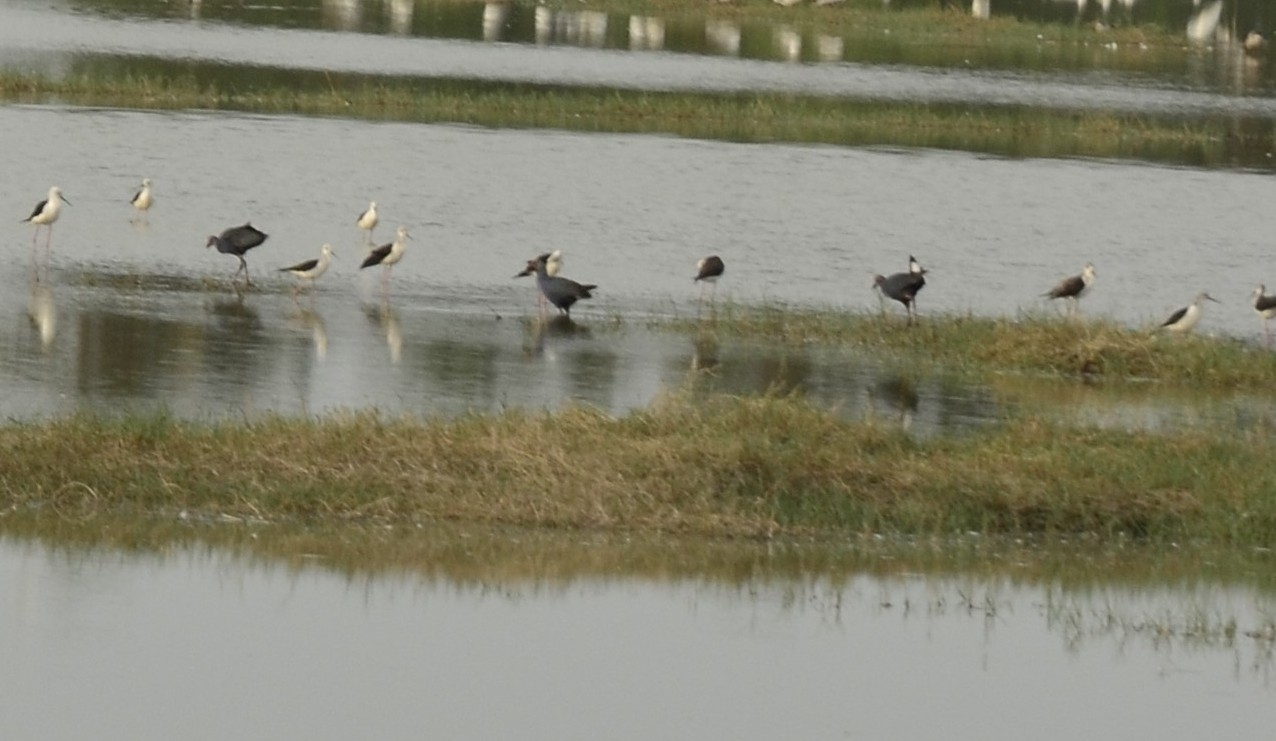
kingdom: Animalia
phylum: Chordata
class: Aves
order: Charadriiformes
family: Recurvirostridae
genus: Himantopus
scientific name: Himantopus himantopus
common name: Black-winged stilt
